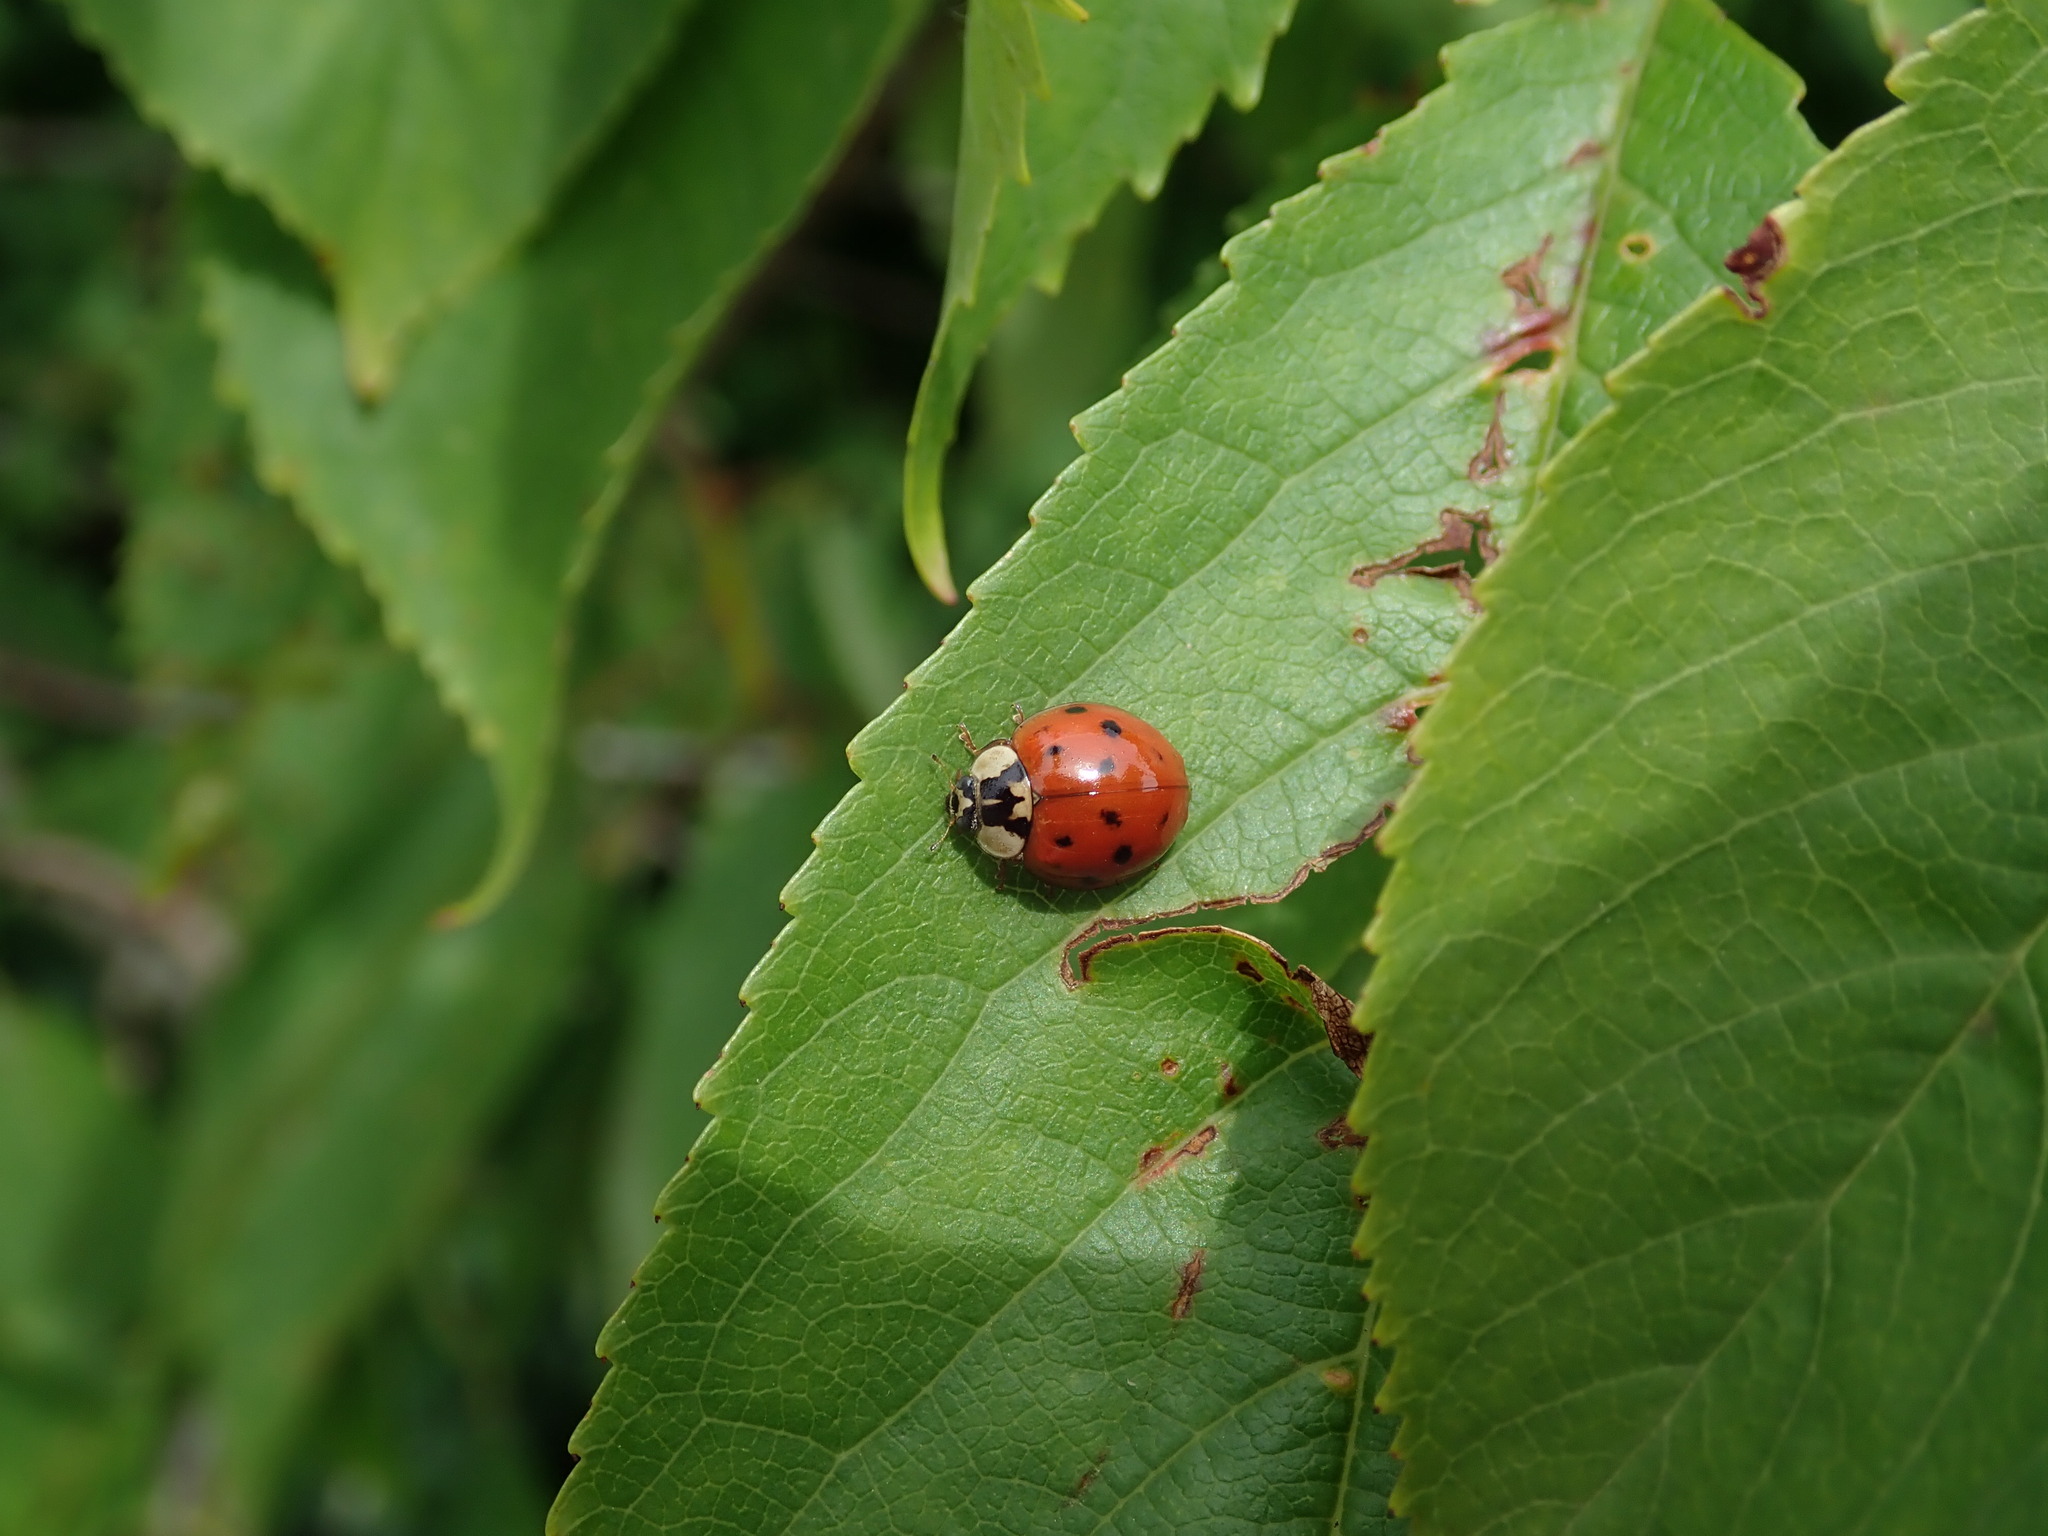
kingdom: Animalia
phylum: Arthropoda
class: Insecta
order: Coleoptera
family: Coccinellidae
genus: Harmonia
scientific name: Harmonia axyridis
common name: Harlequin ladybird
